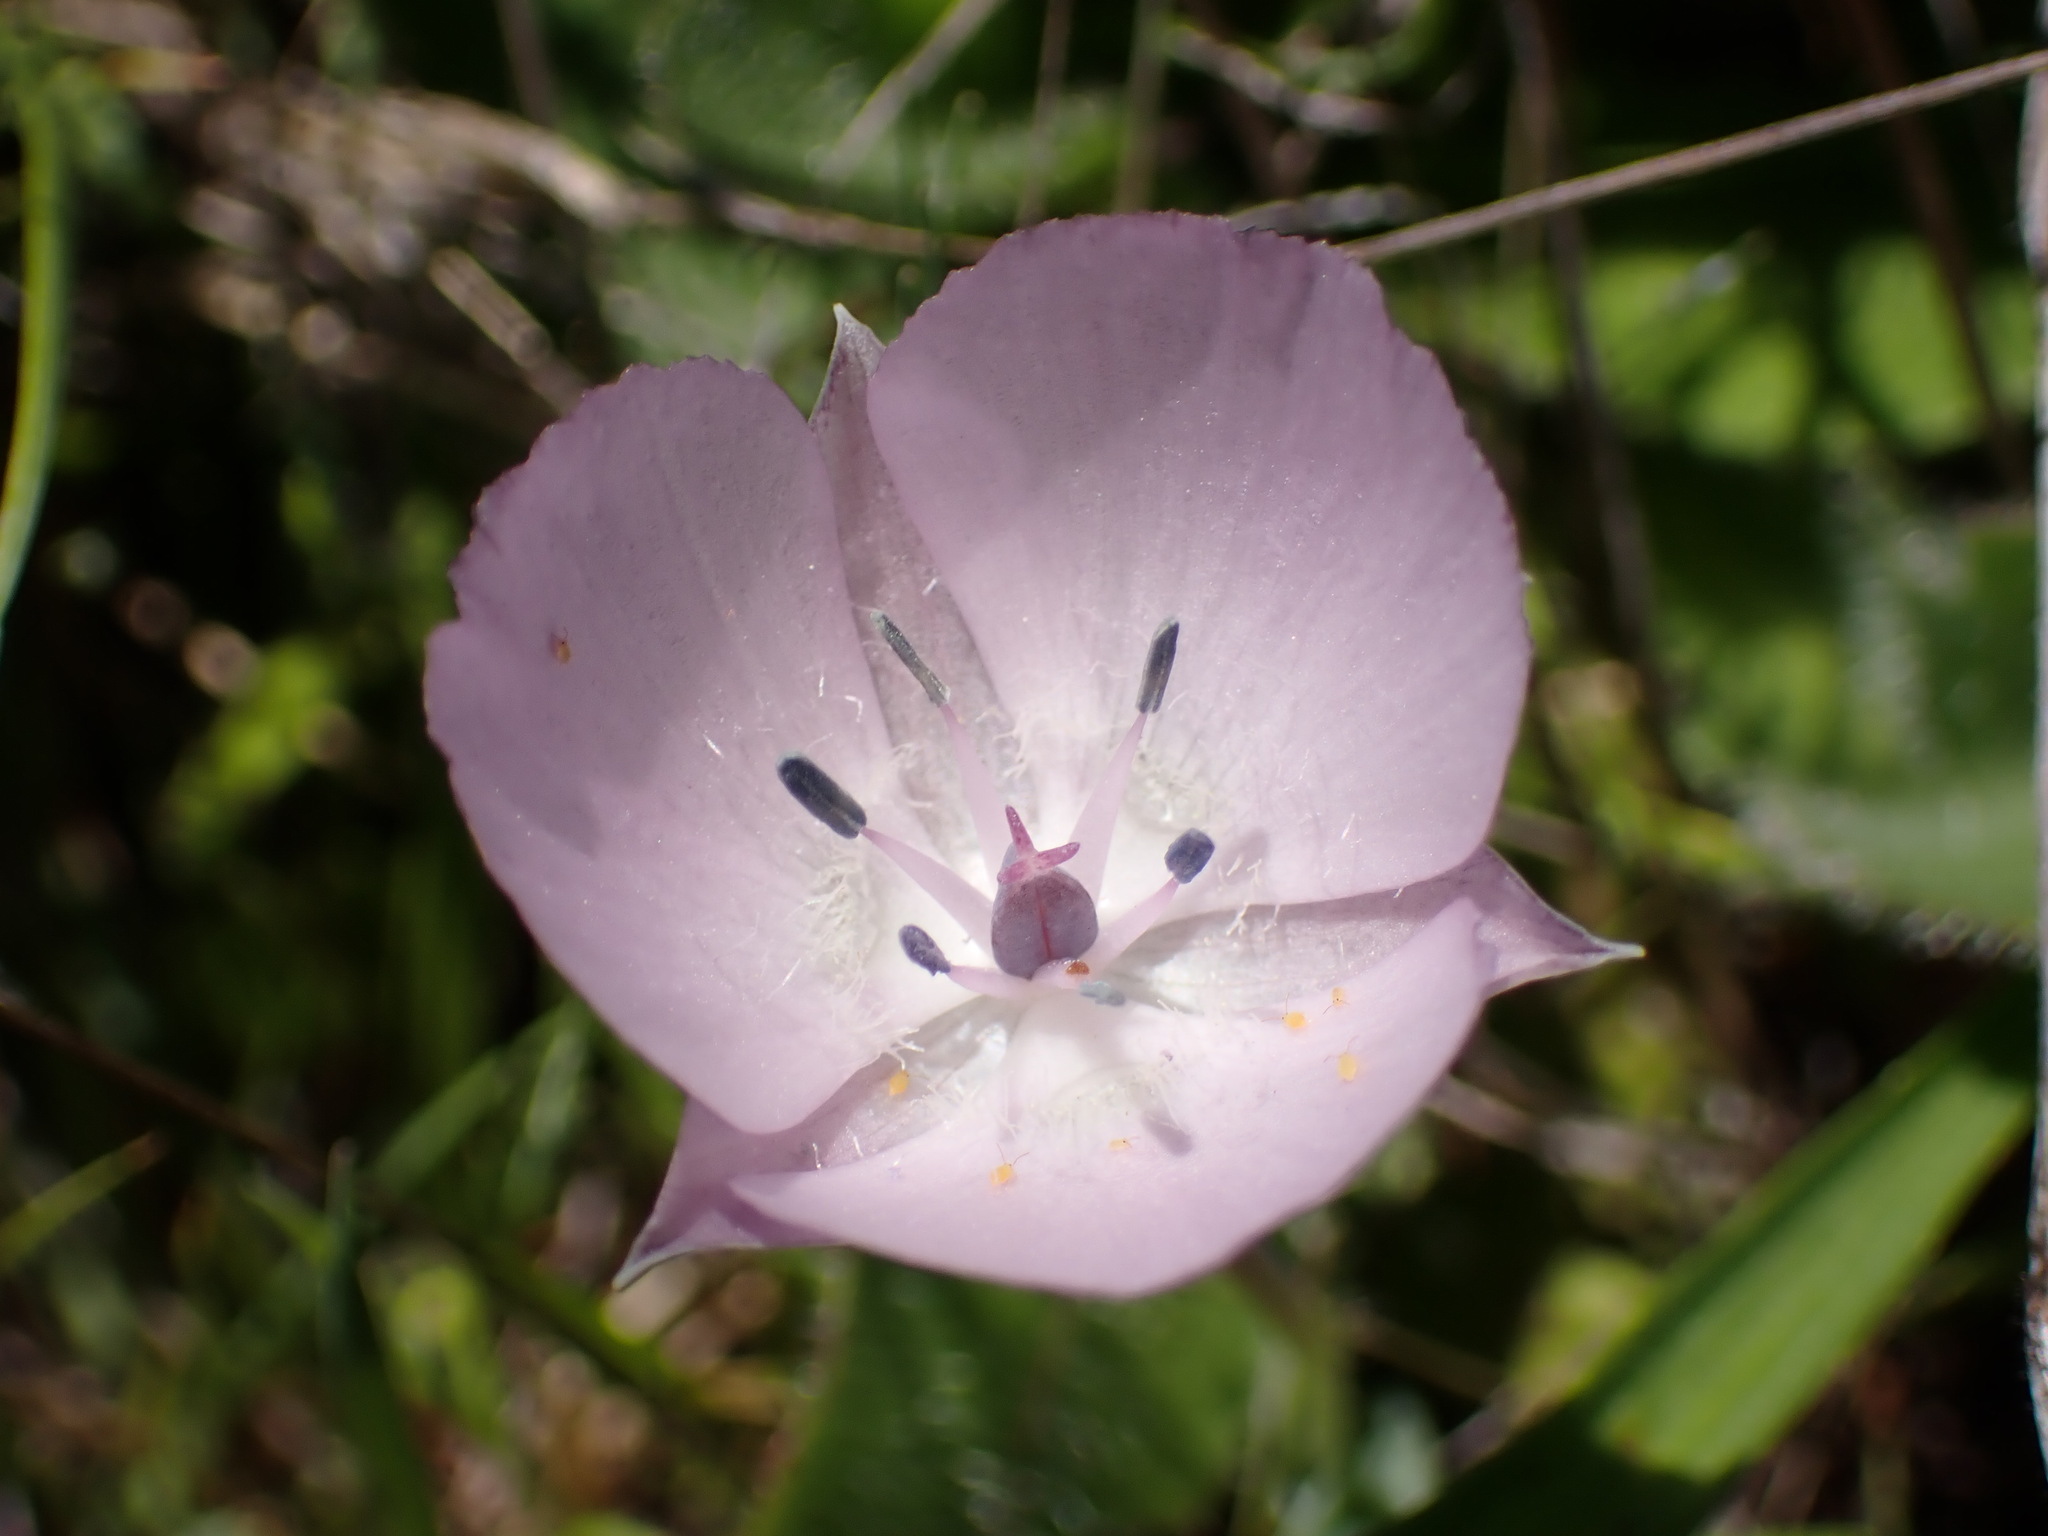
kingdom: Plantae
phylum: Tracheophyta
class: Liliopsida
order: Liliales
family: Liliaceae
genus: Calochortus
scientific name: Calochortus uniflorus
